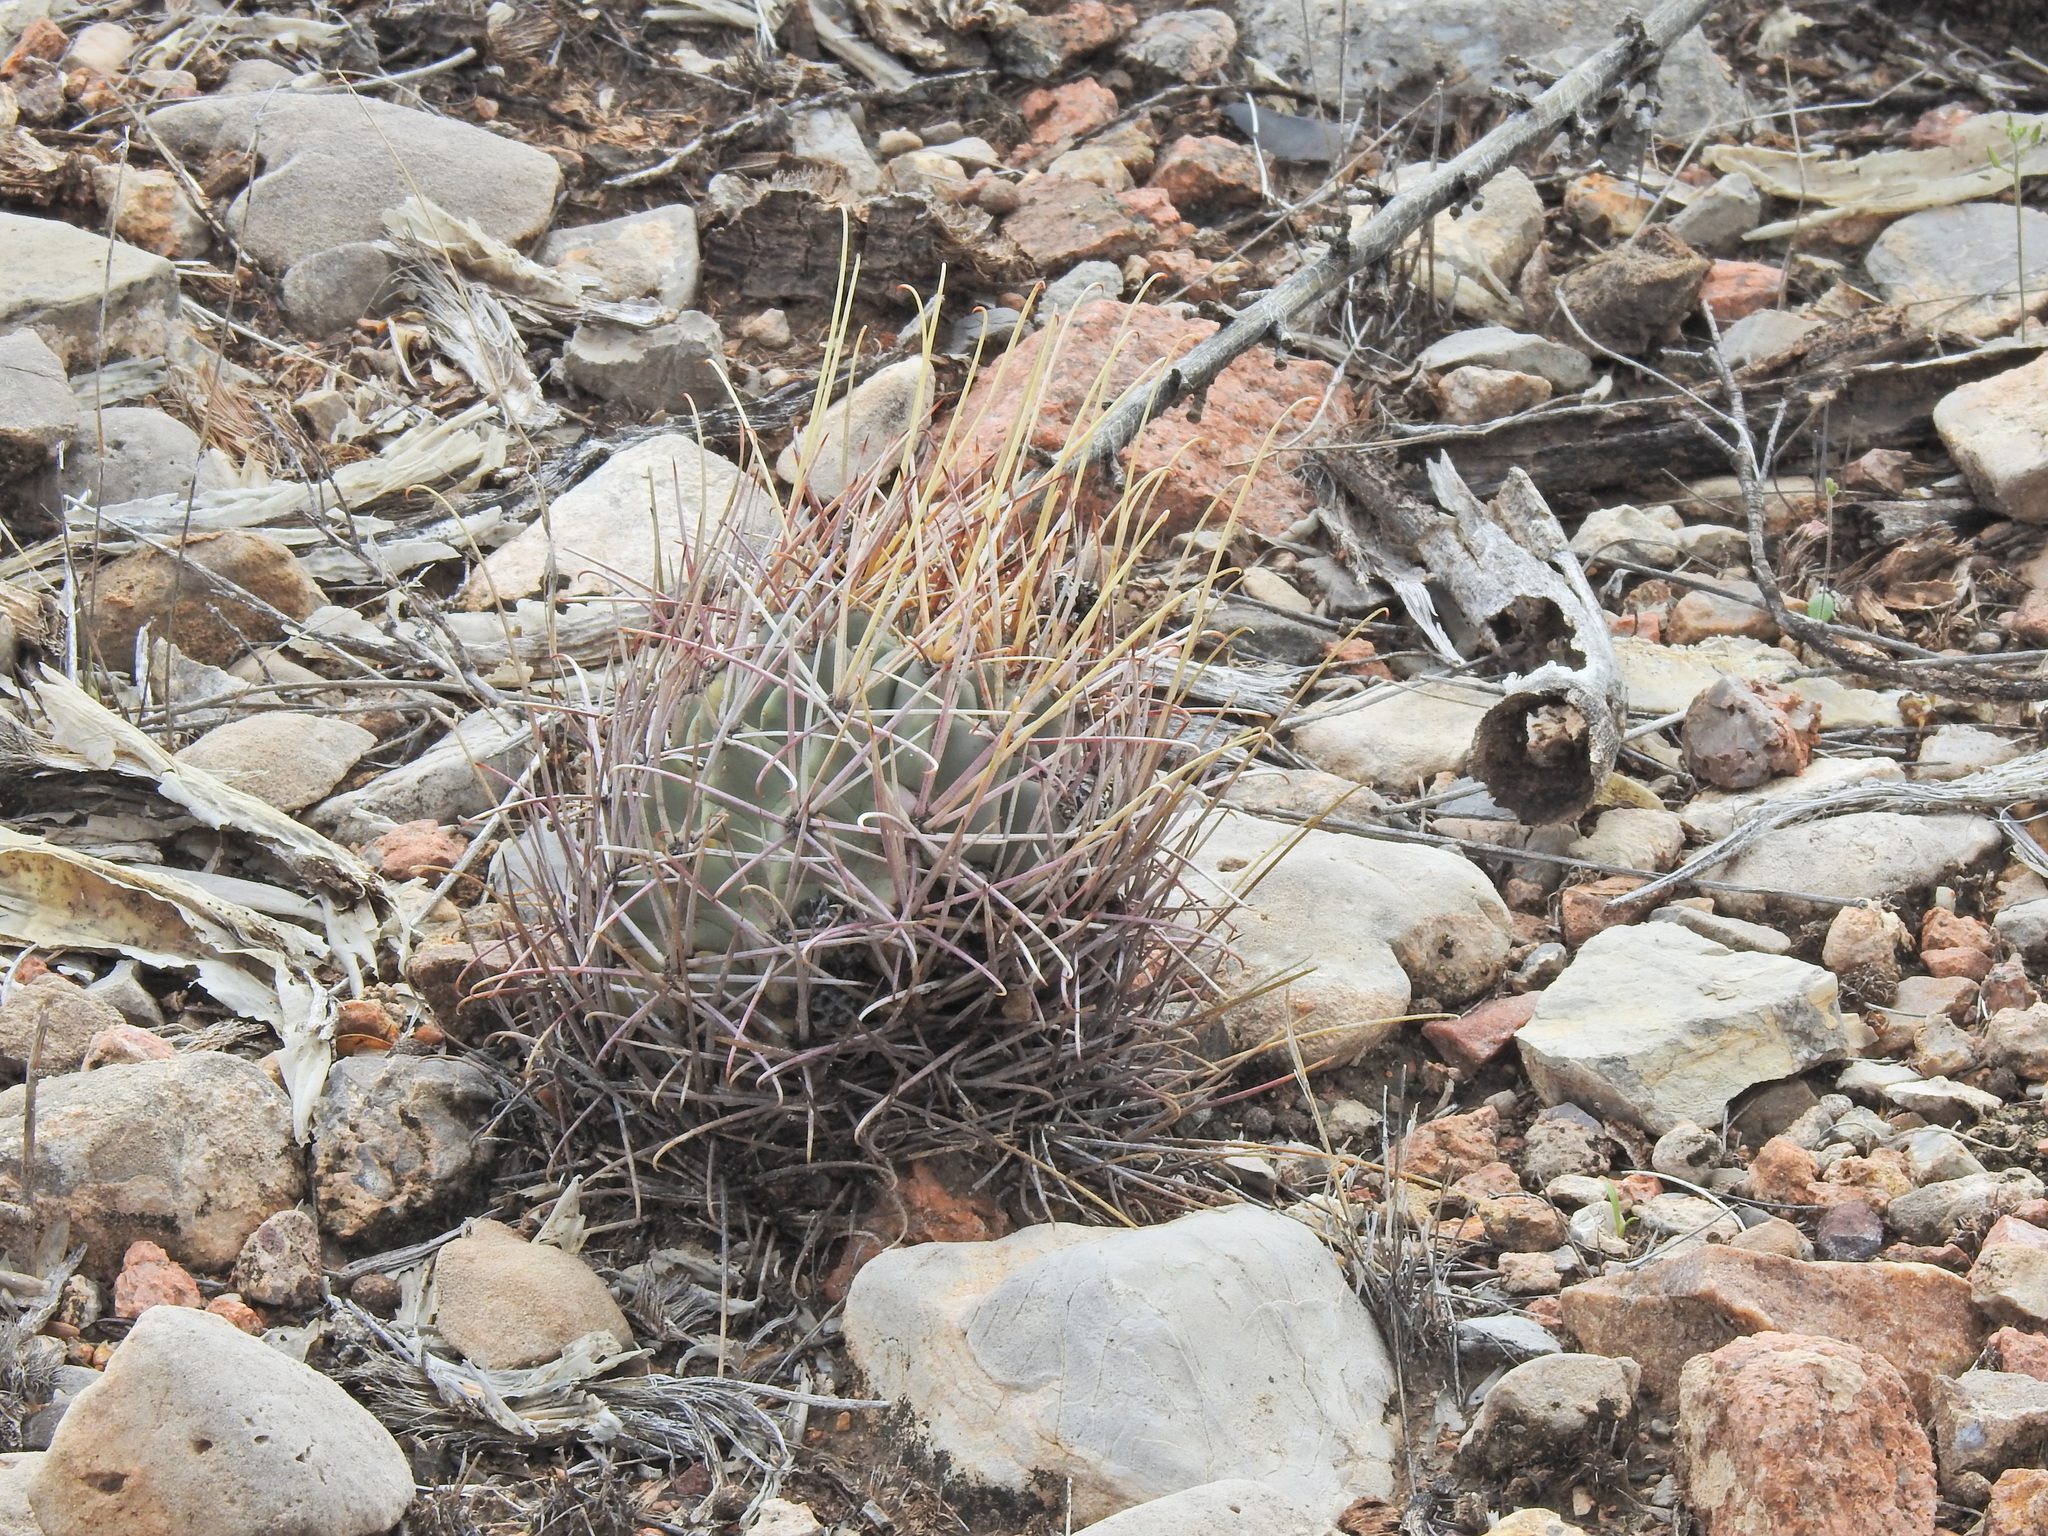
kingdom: Plantae
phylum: Tracheophyta
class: Magnoliopsida
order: Caryophyllales
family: Cactaceae
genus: Ferocactus
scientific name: Ferocactus uncinatus
